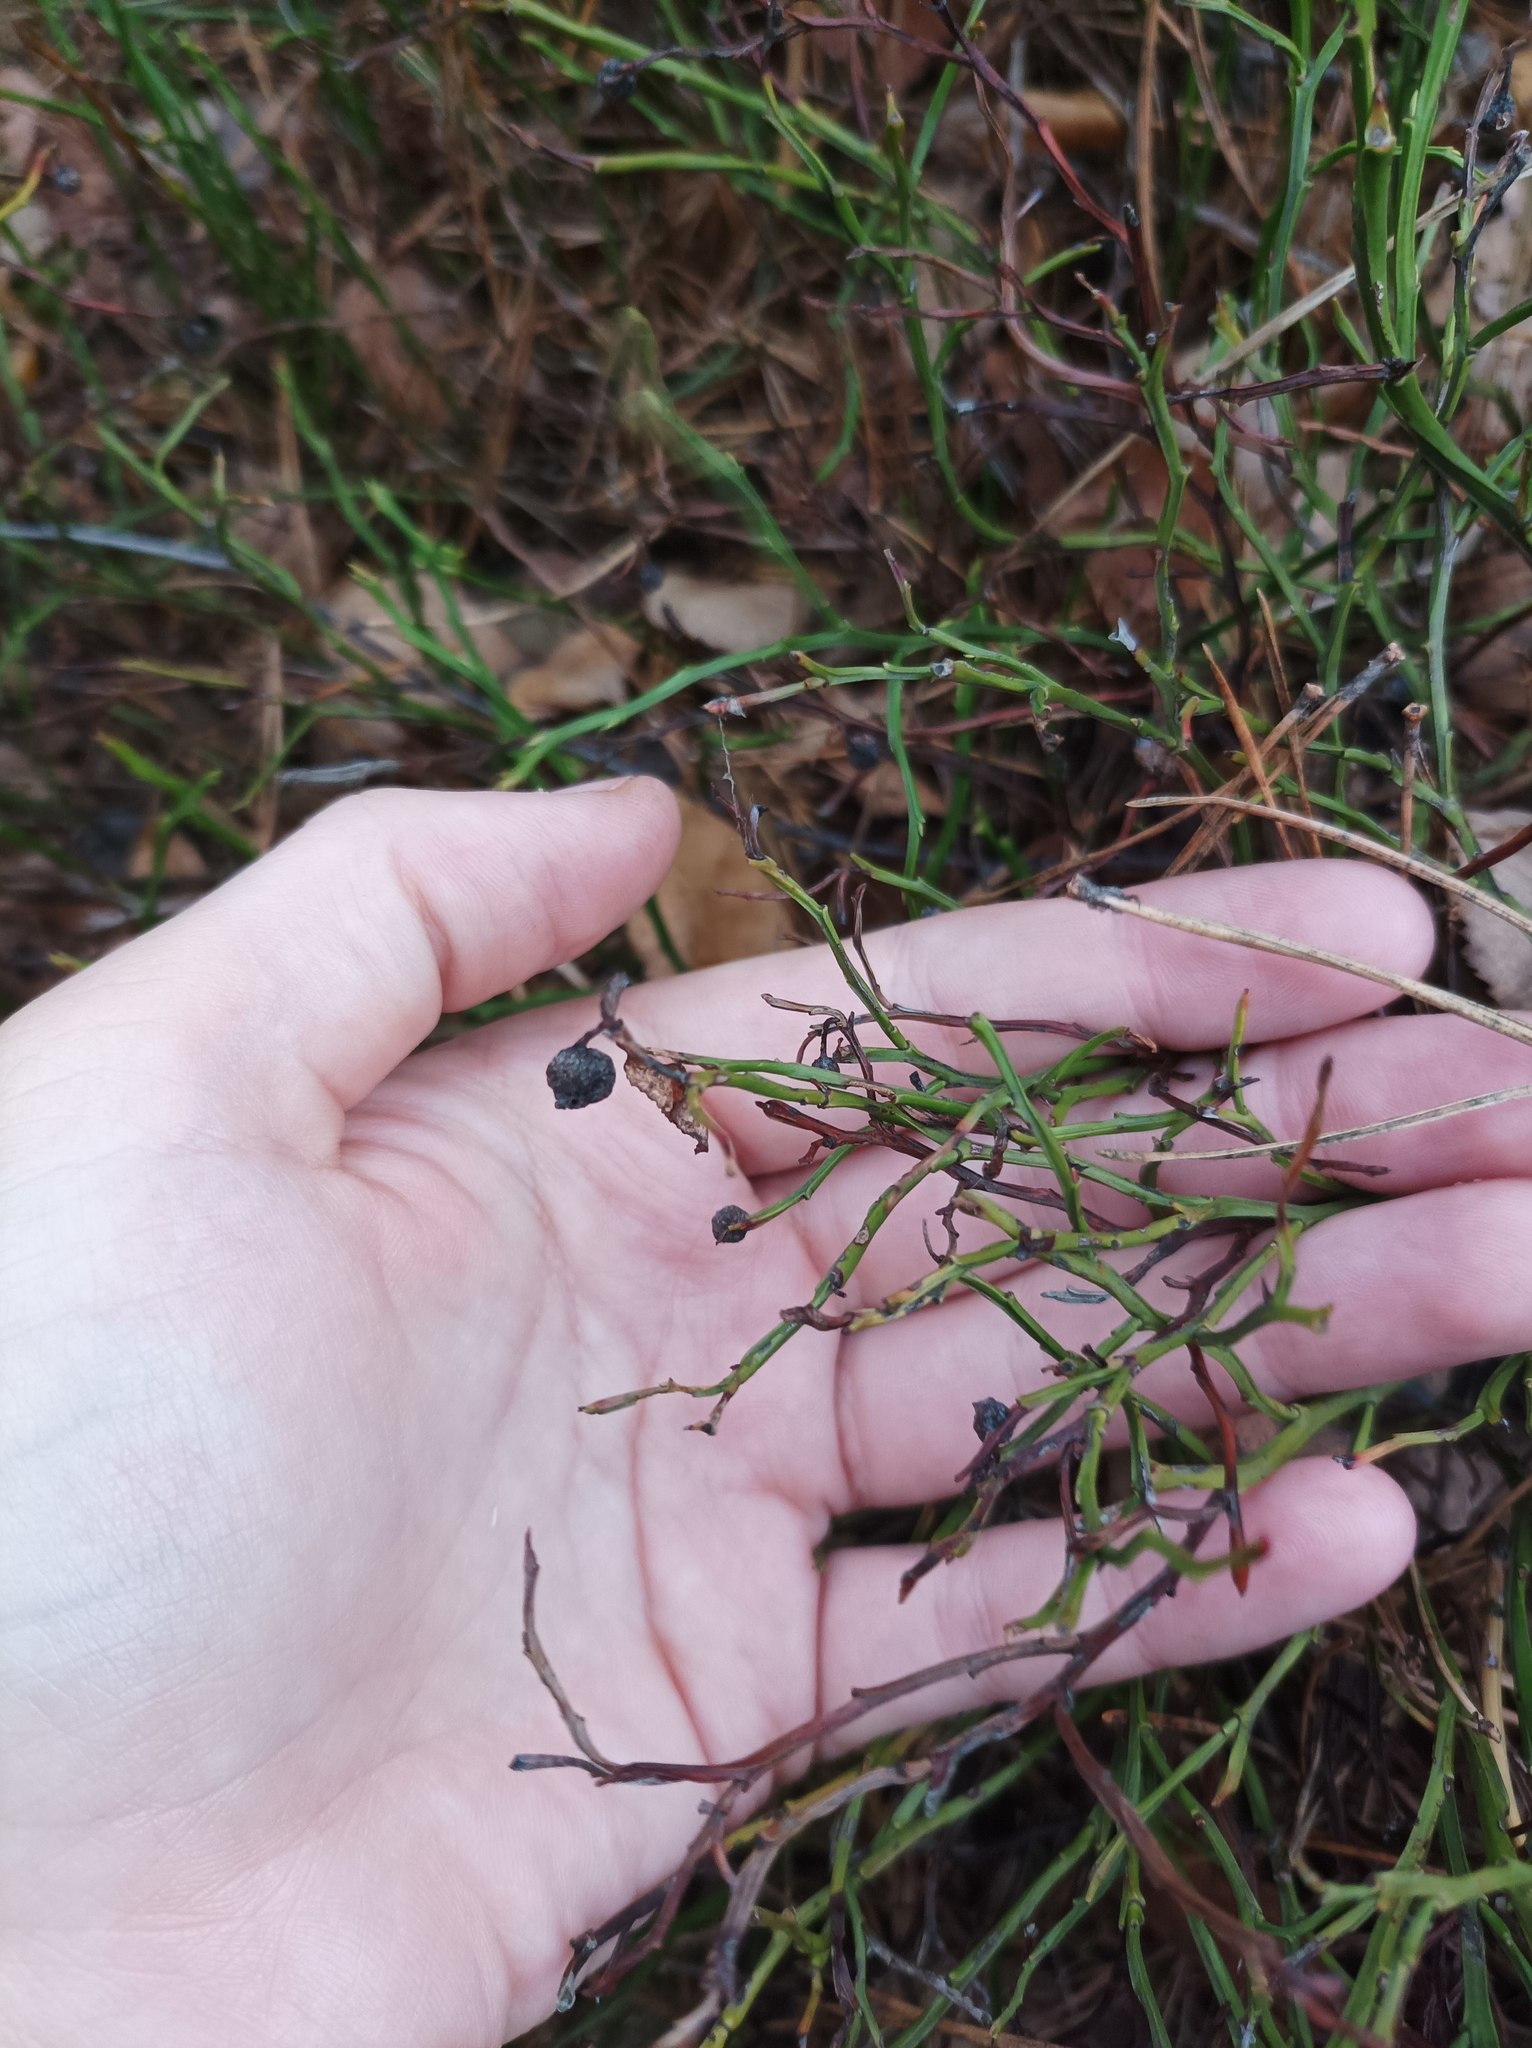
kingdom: Plantae
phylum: Tracheophyta
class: Magnoliopsida
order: Ericales
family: Ericaceae
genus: Vaccinium
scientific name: Vaccinium myrtillus
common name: Bilberry
